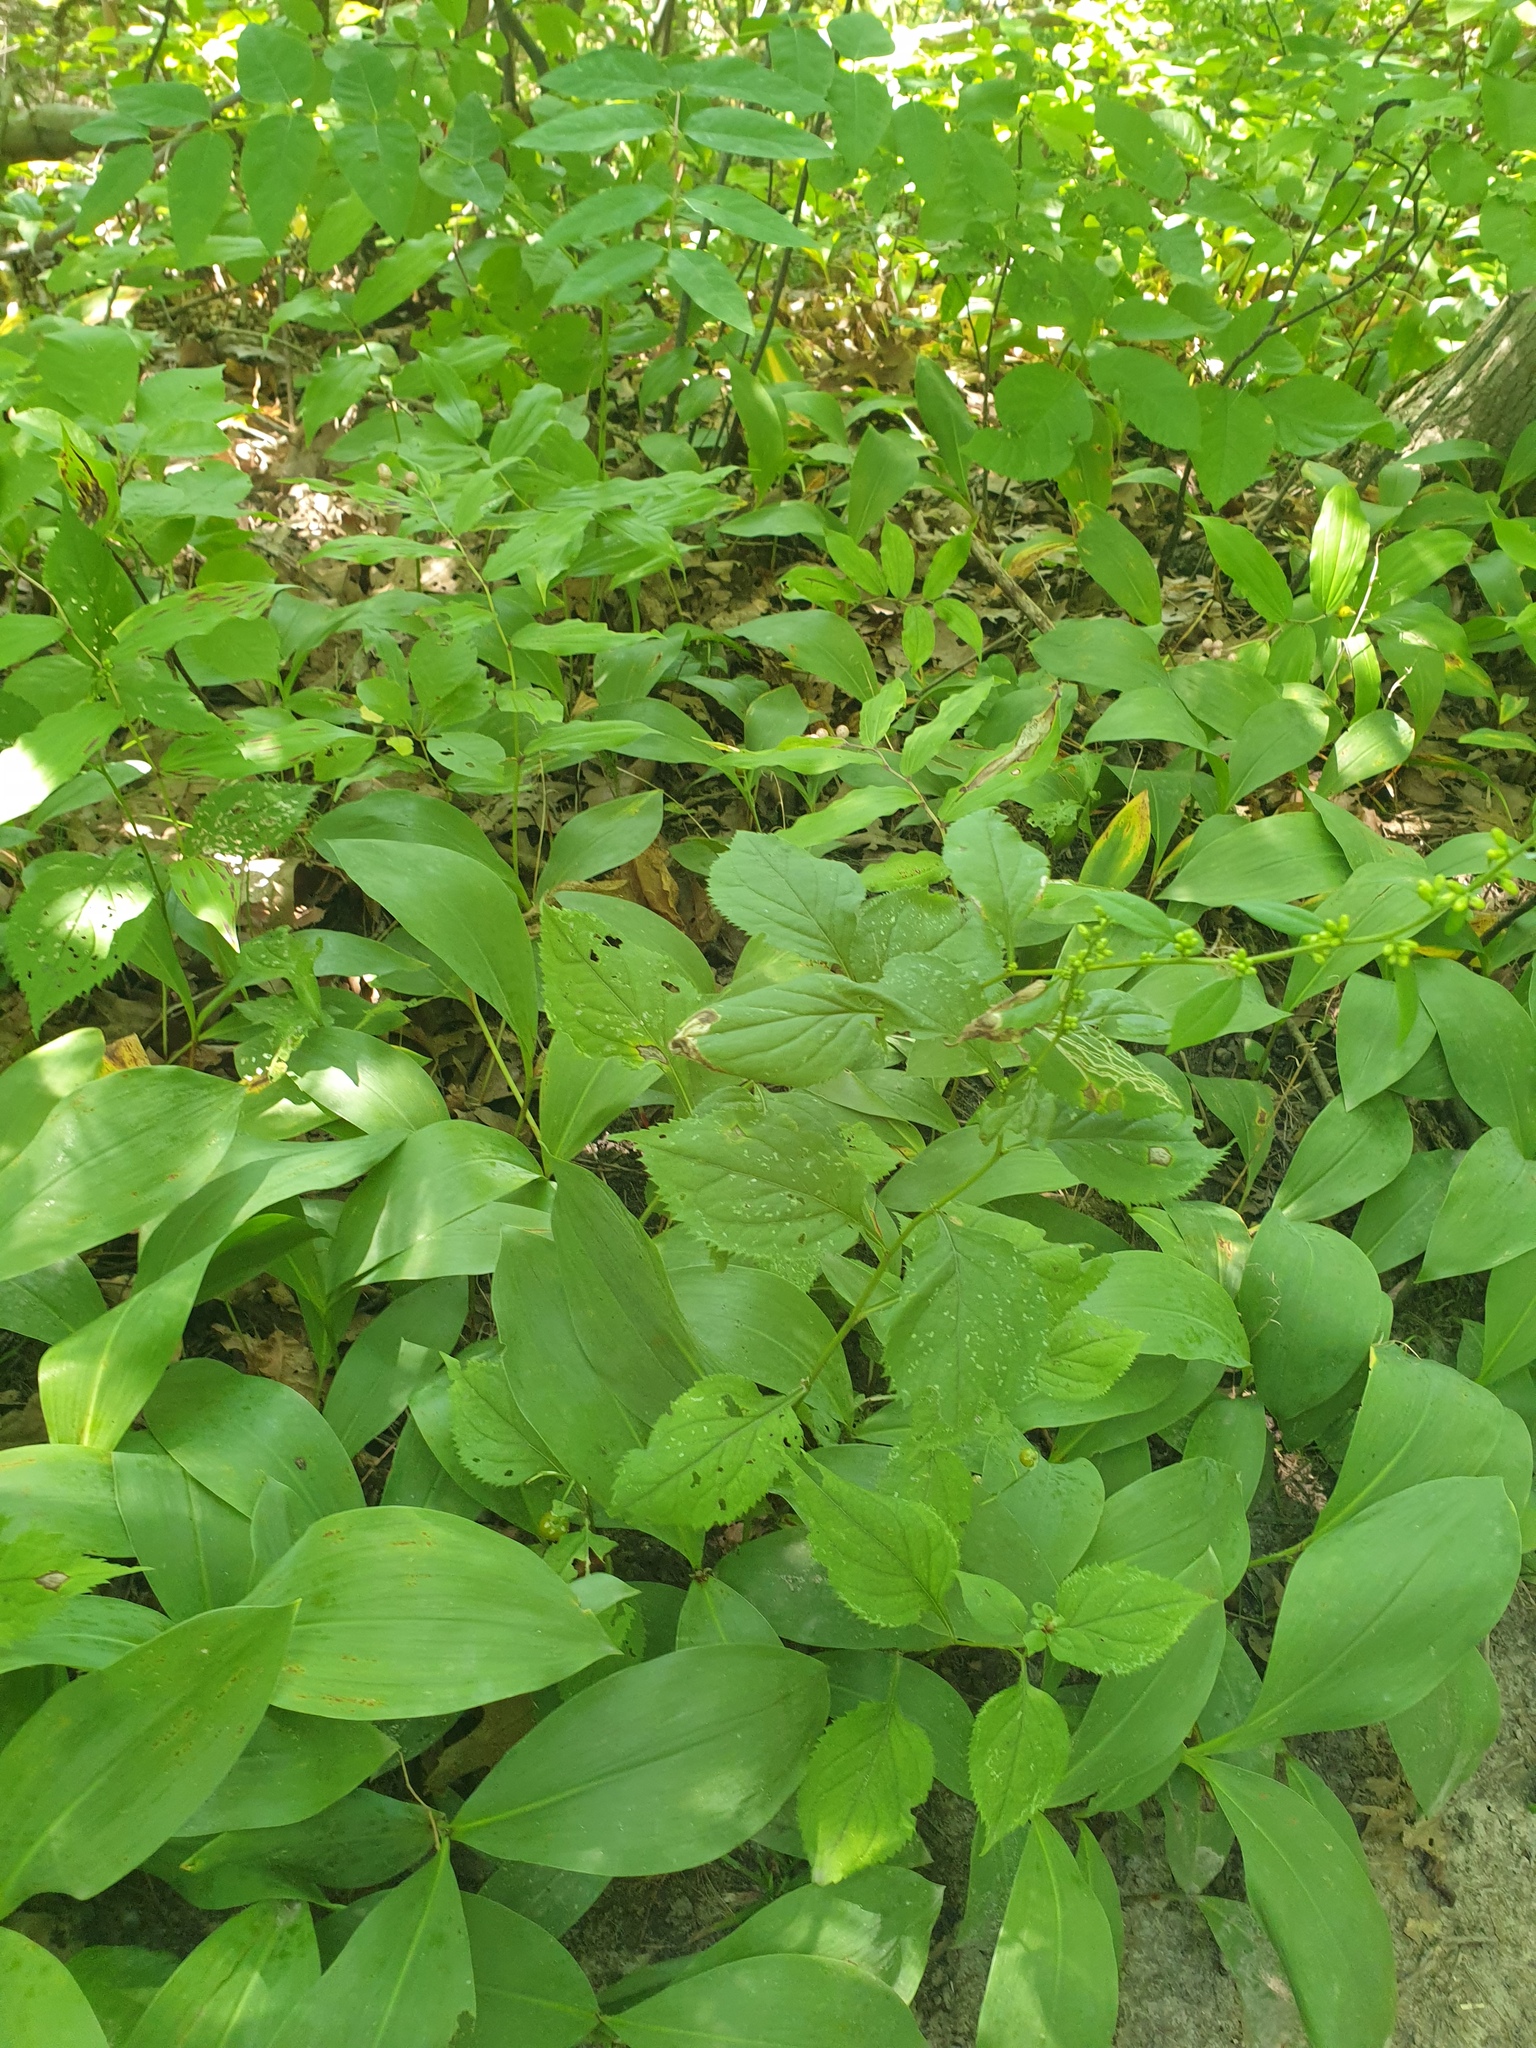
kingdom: Plantae
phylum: Tracheophyta
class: Liliopsida
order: Asparagales
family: Asparagaceae
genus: Convallaria
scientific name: Convallaria majalis
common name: Lily-of-the-valley
